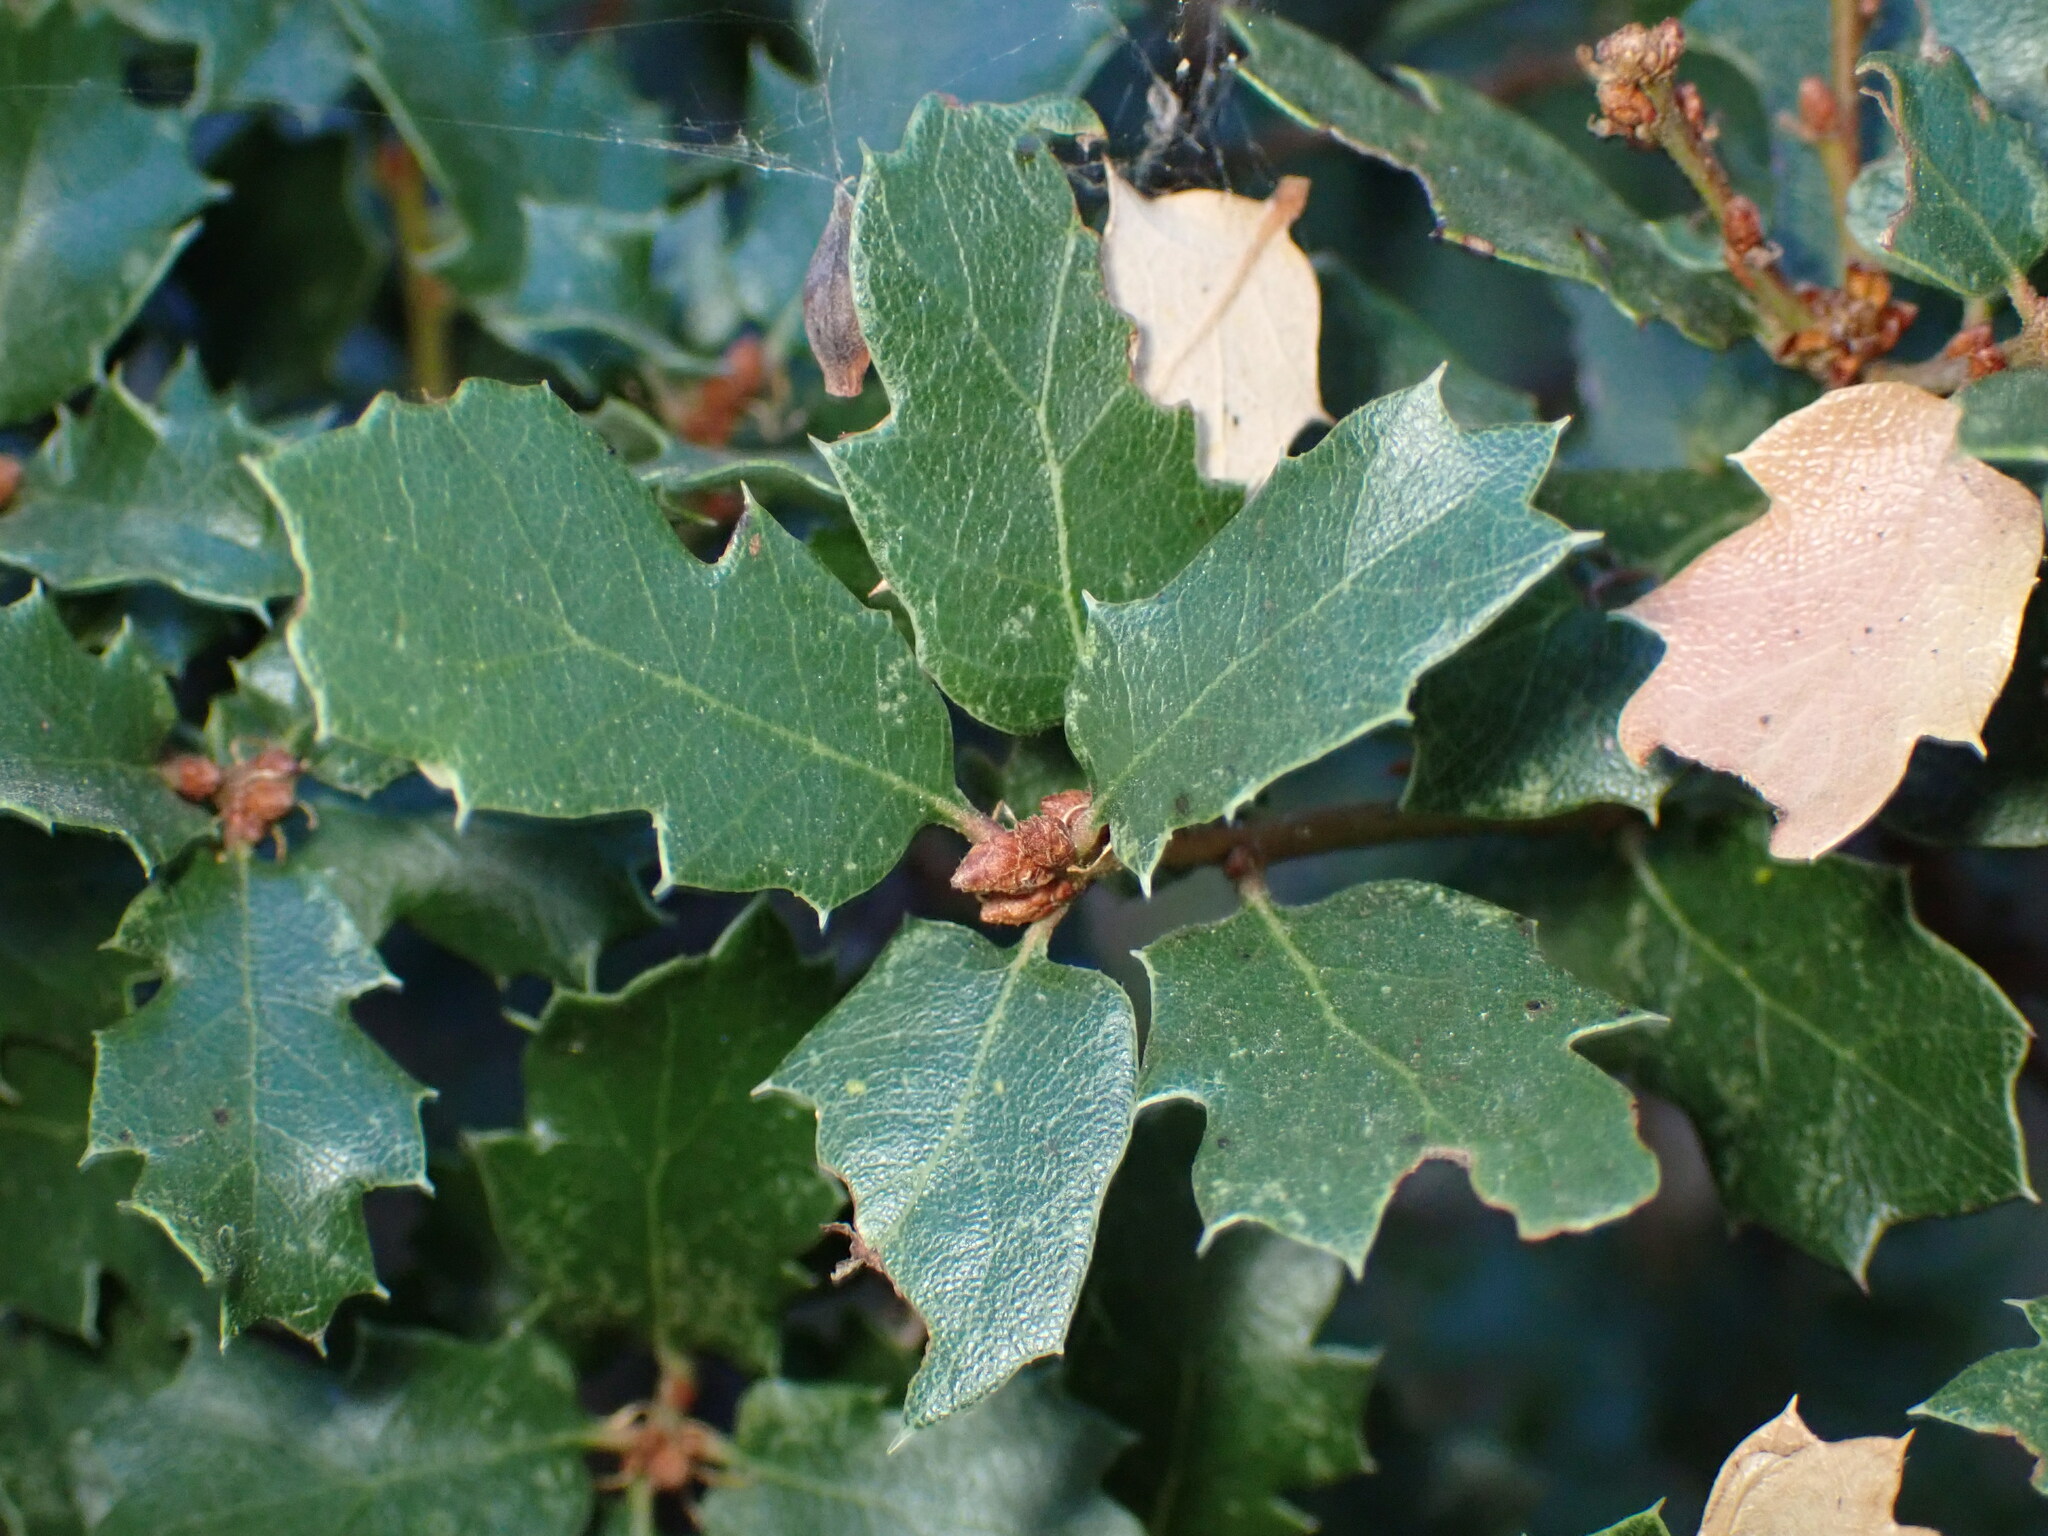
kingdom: Plantae
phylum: Tracheophyta
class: Magnoliopsida
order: Fagales
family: Fagaceae
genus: Quercus
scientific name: Quercus berberidifolia
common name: California scrub oak
